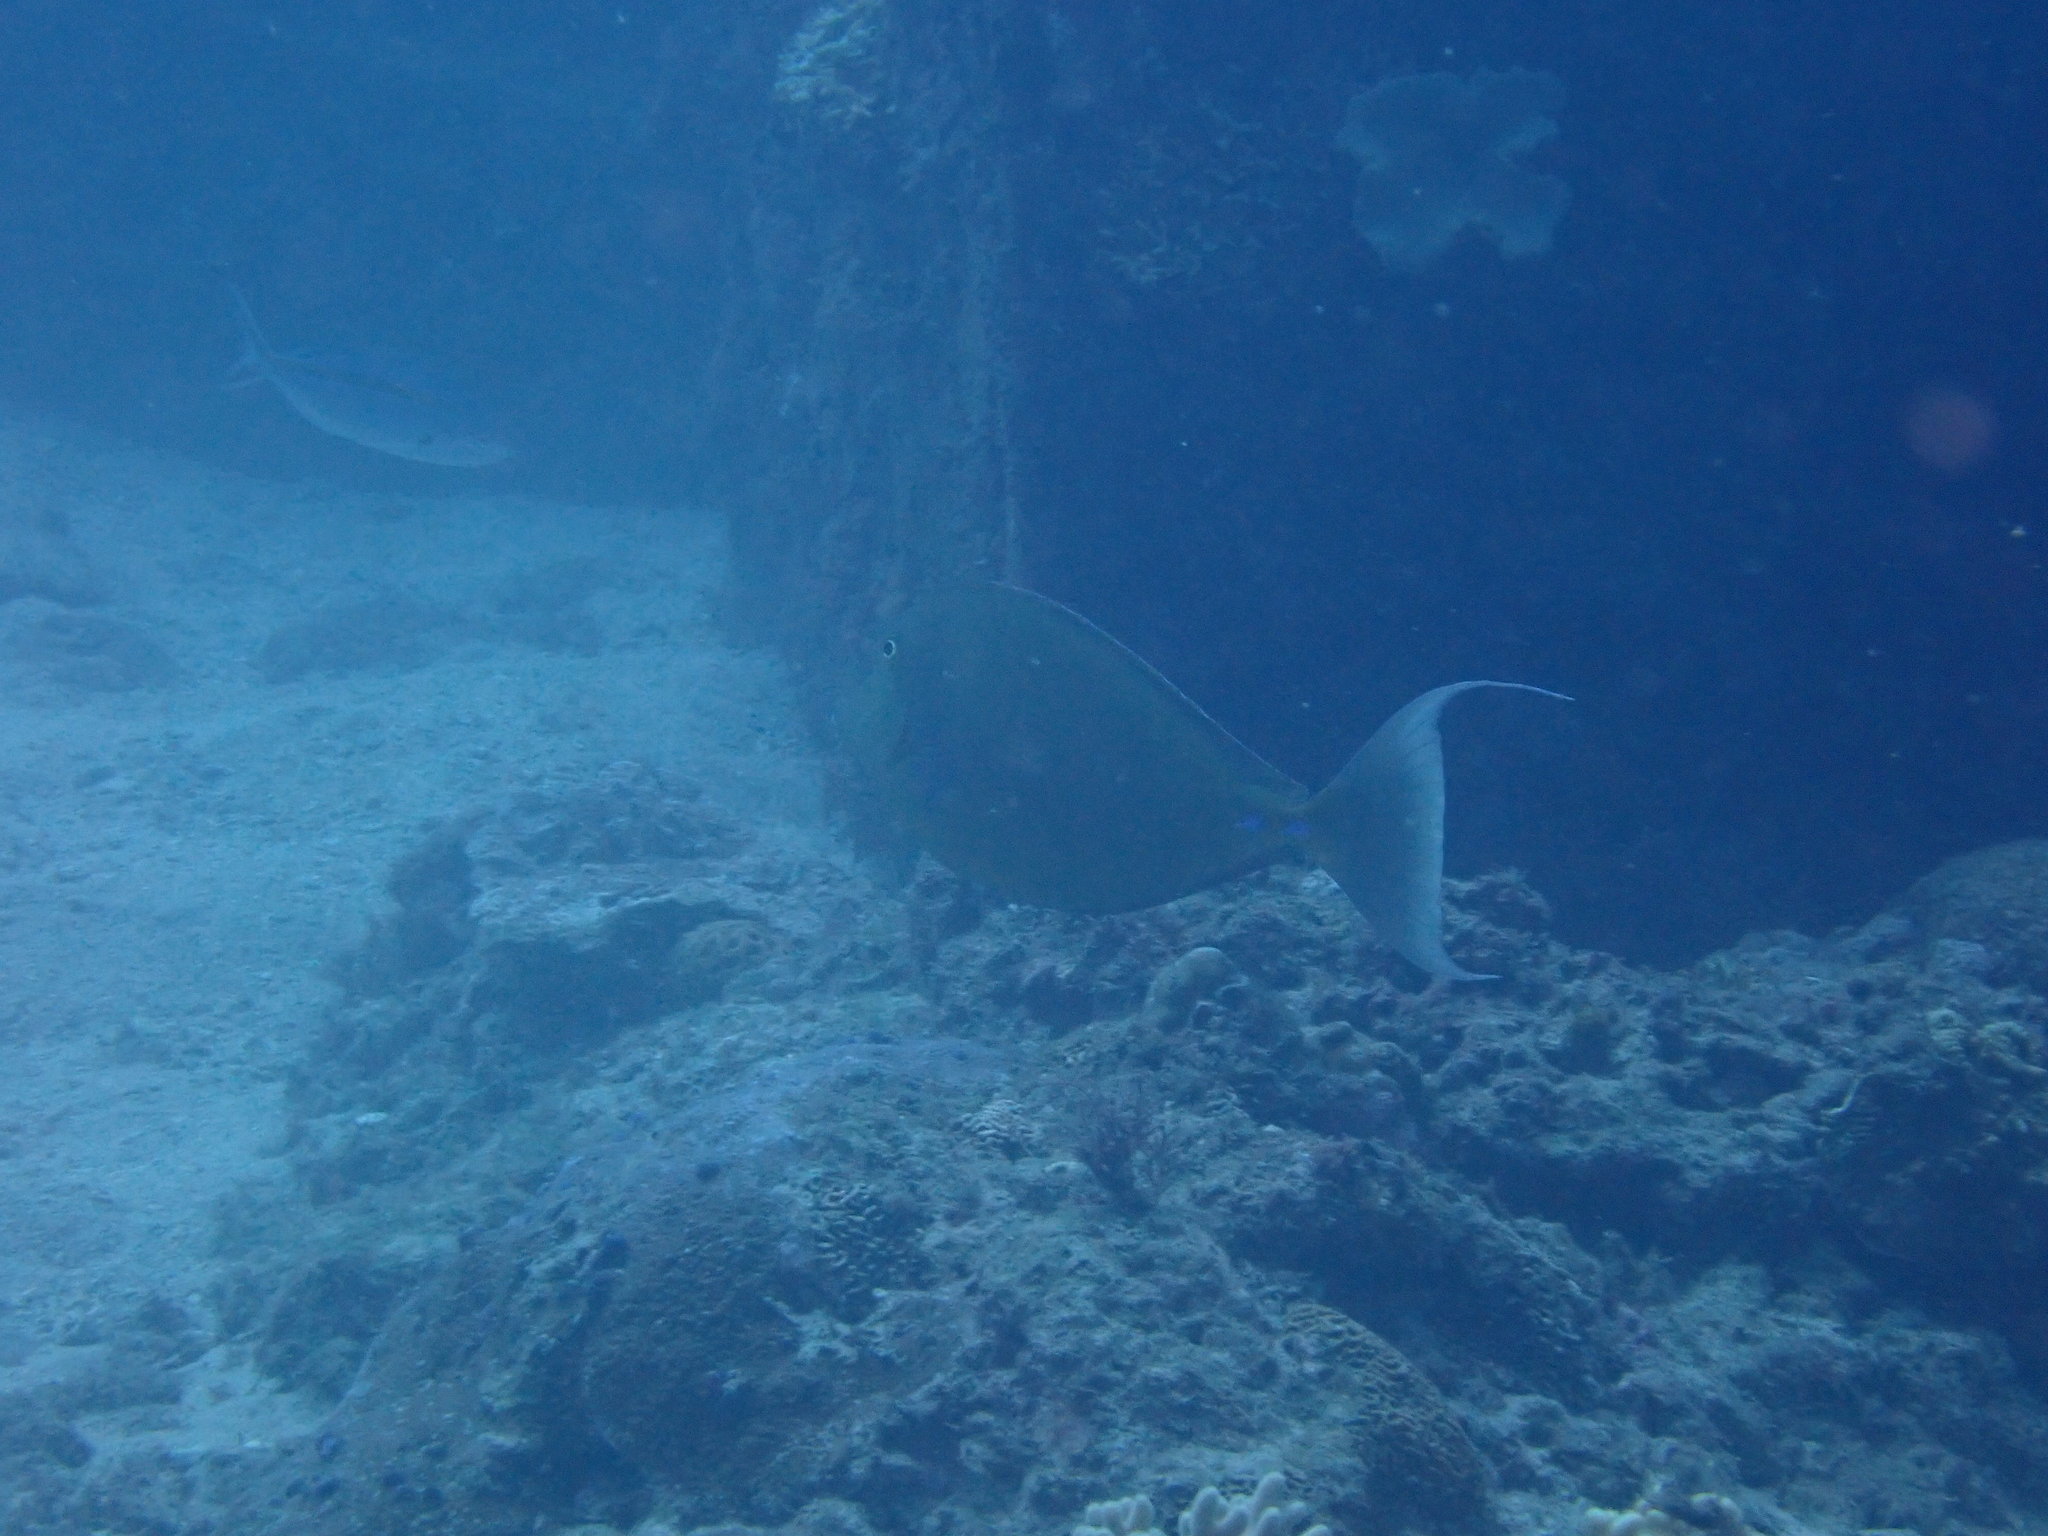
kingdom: Animalia
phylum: Chordata
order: Perciformes
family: Acanthuridae
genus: Naso
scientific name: Naso unicornis
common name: Bluespine unicornfish
